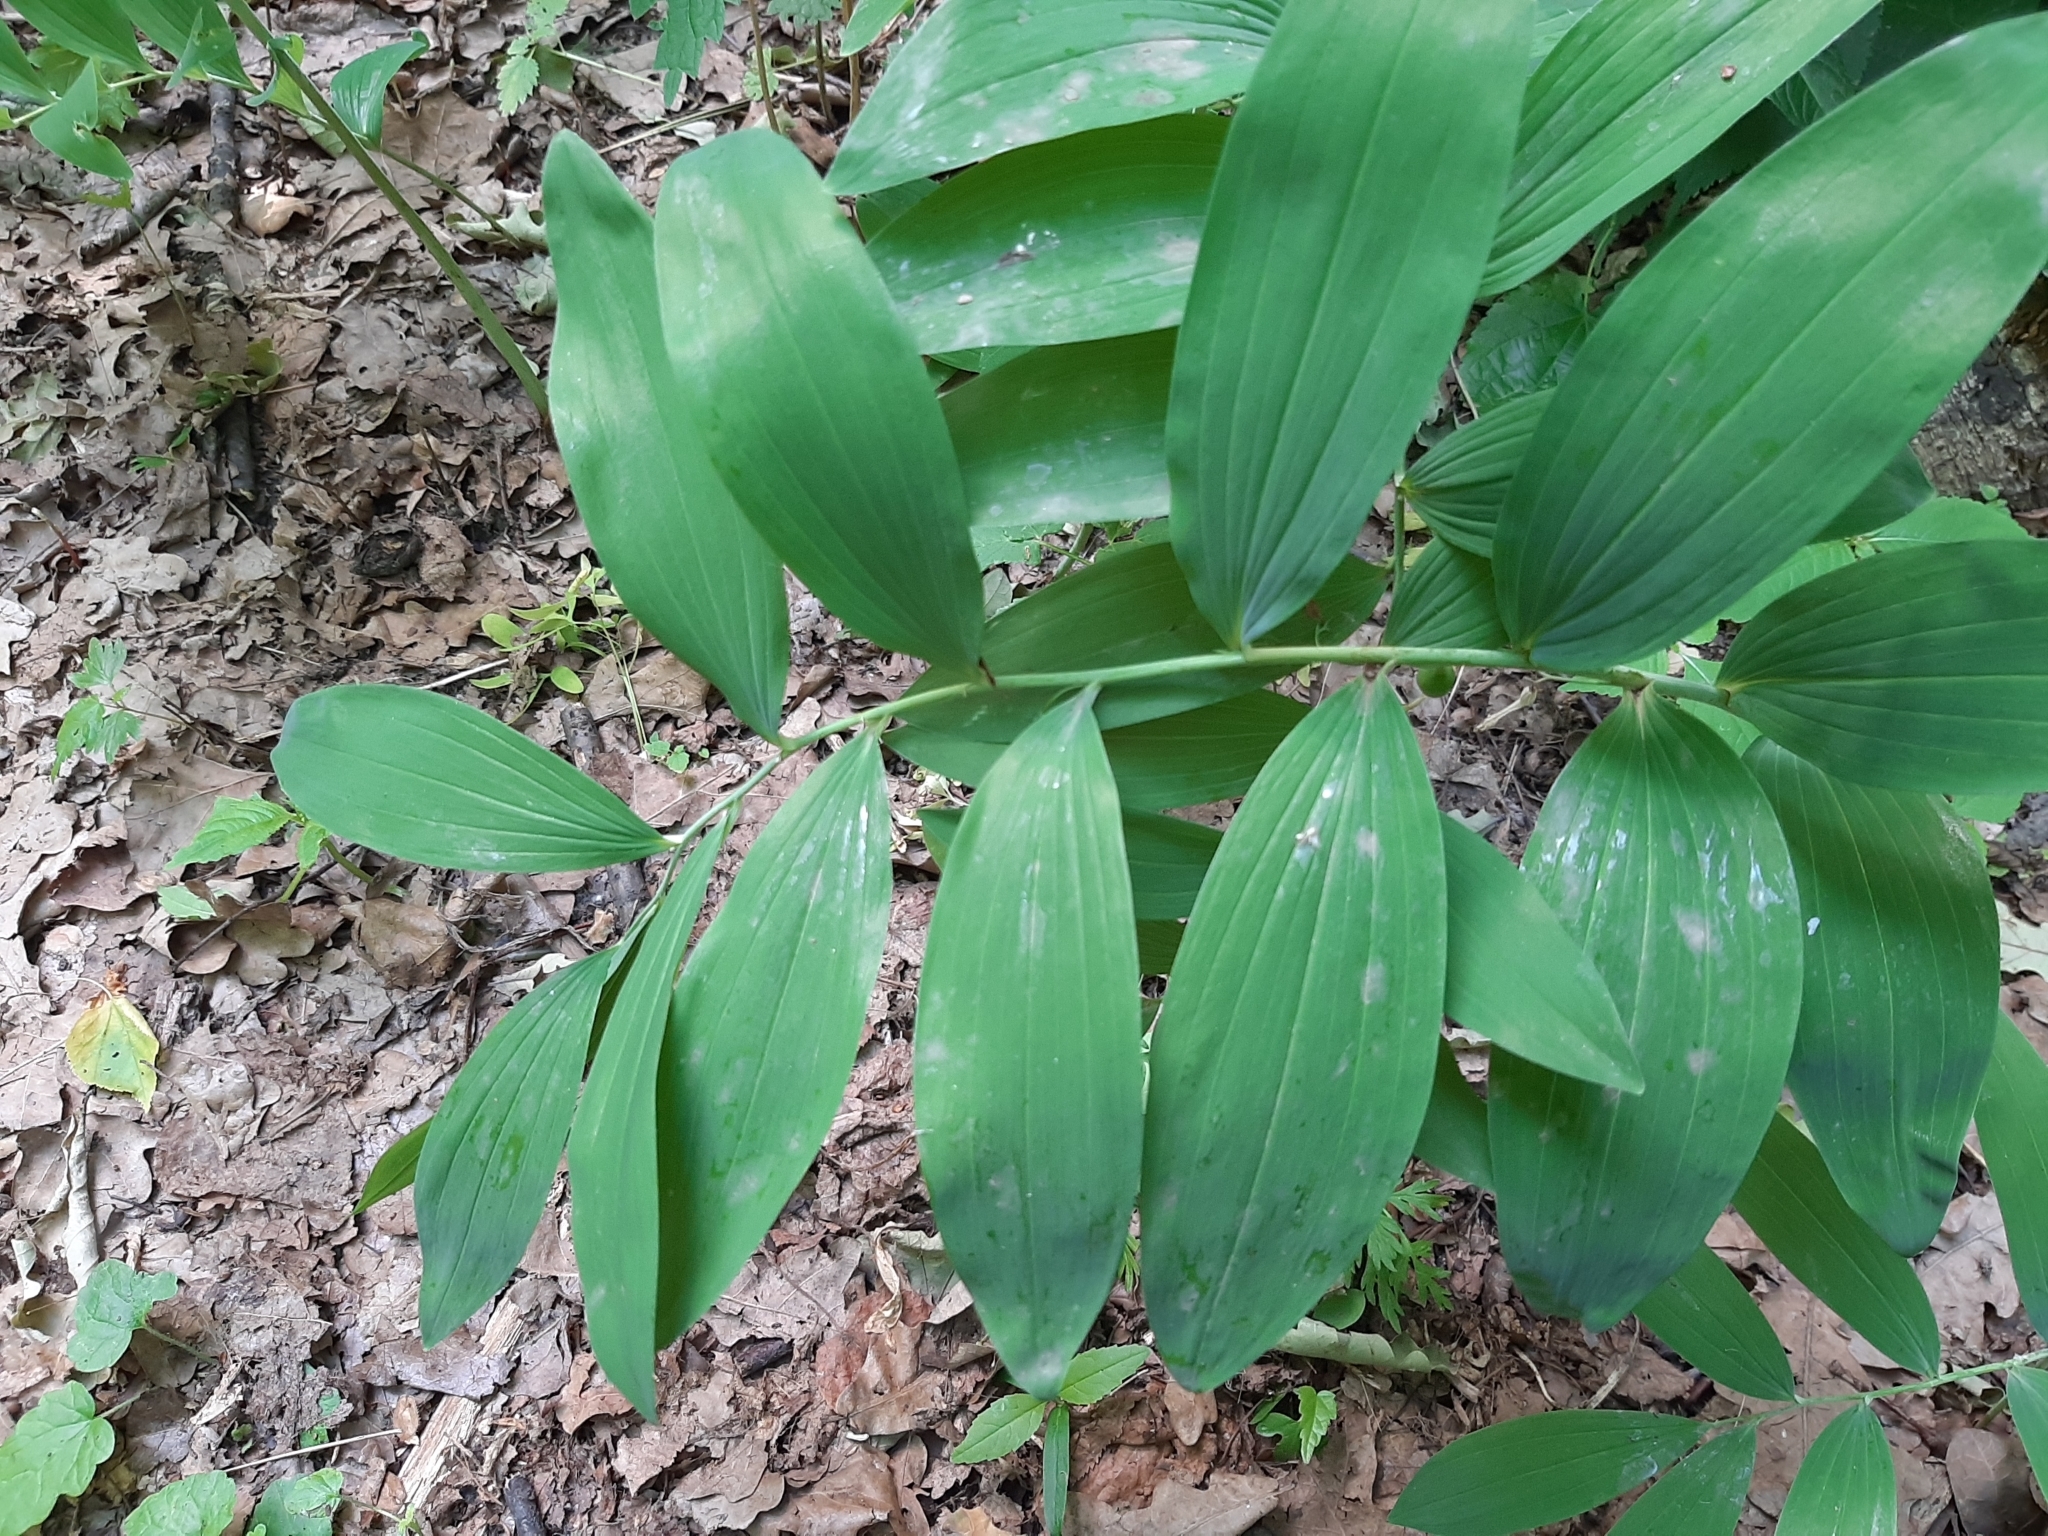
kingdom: Plantae
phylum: Tracheophyta
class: Liliopsida
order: Asparagales
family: Asparagaceae
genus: Polygonatum
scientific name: Polygonatum multiflorum
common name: Solomon's-seal
